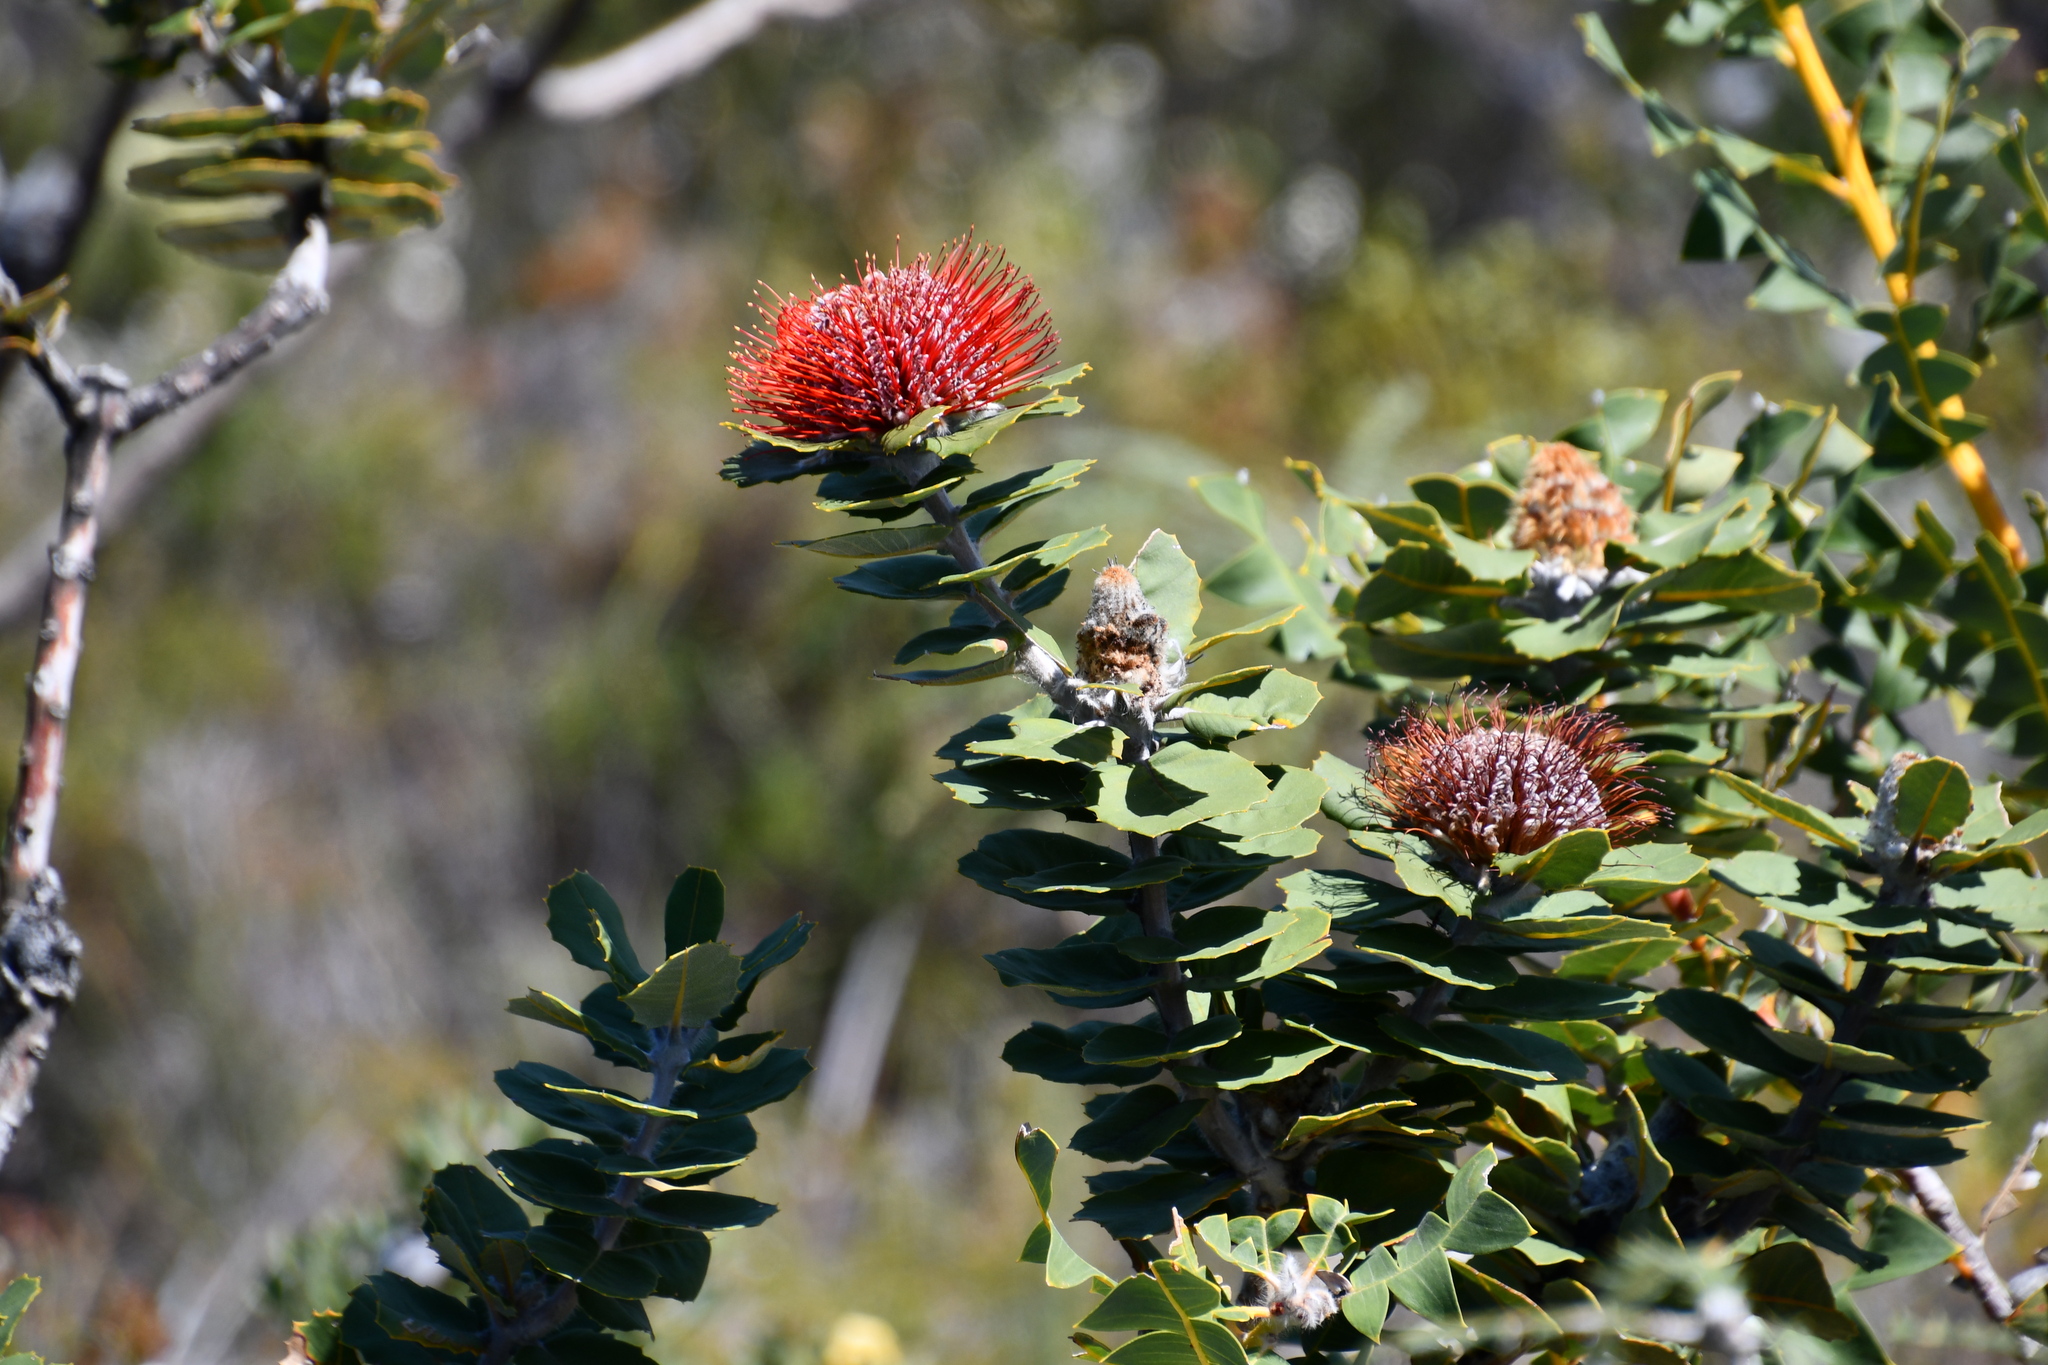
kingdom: Plantae
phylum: Tracheophyta
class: Magnoliopsida
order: Proteales
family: Proteaceae
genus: Banksia
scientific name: Banksia coccinea
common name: Scarlet banksia
